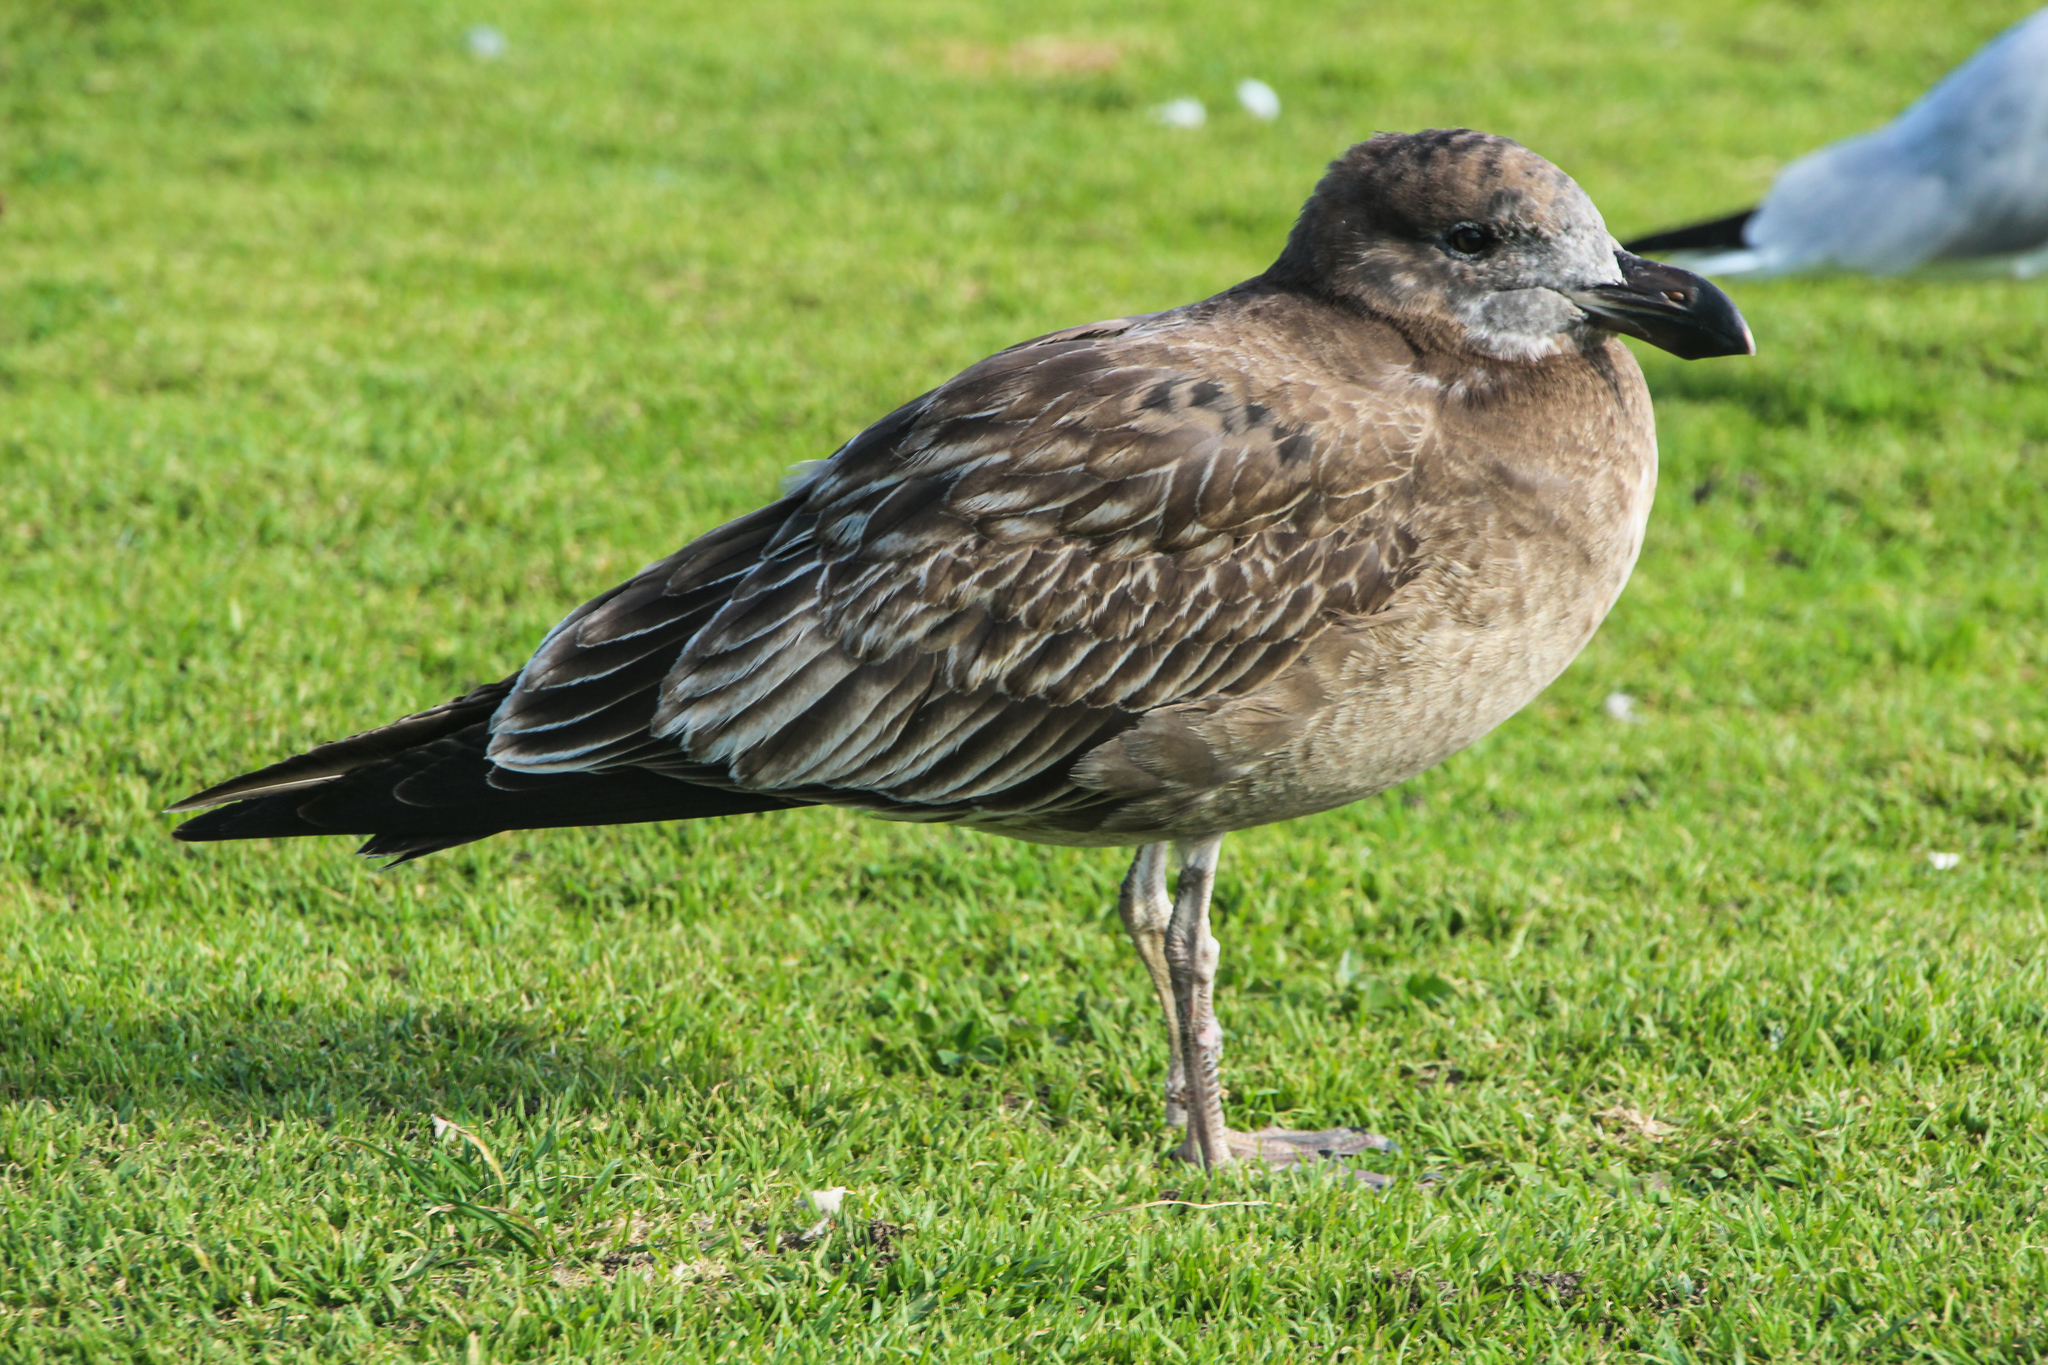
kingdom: Animalia
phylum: Chordata
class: Aves
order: Charadriiformes
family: Laridae
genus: Larus
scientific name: Larus pacificus
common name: Pacific gull
